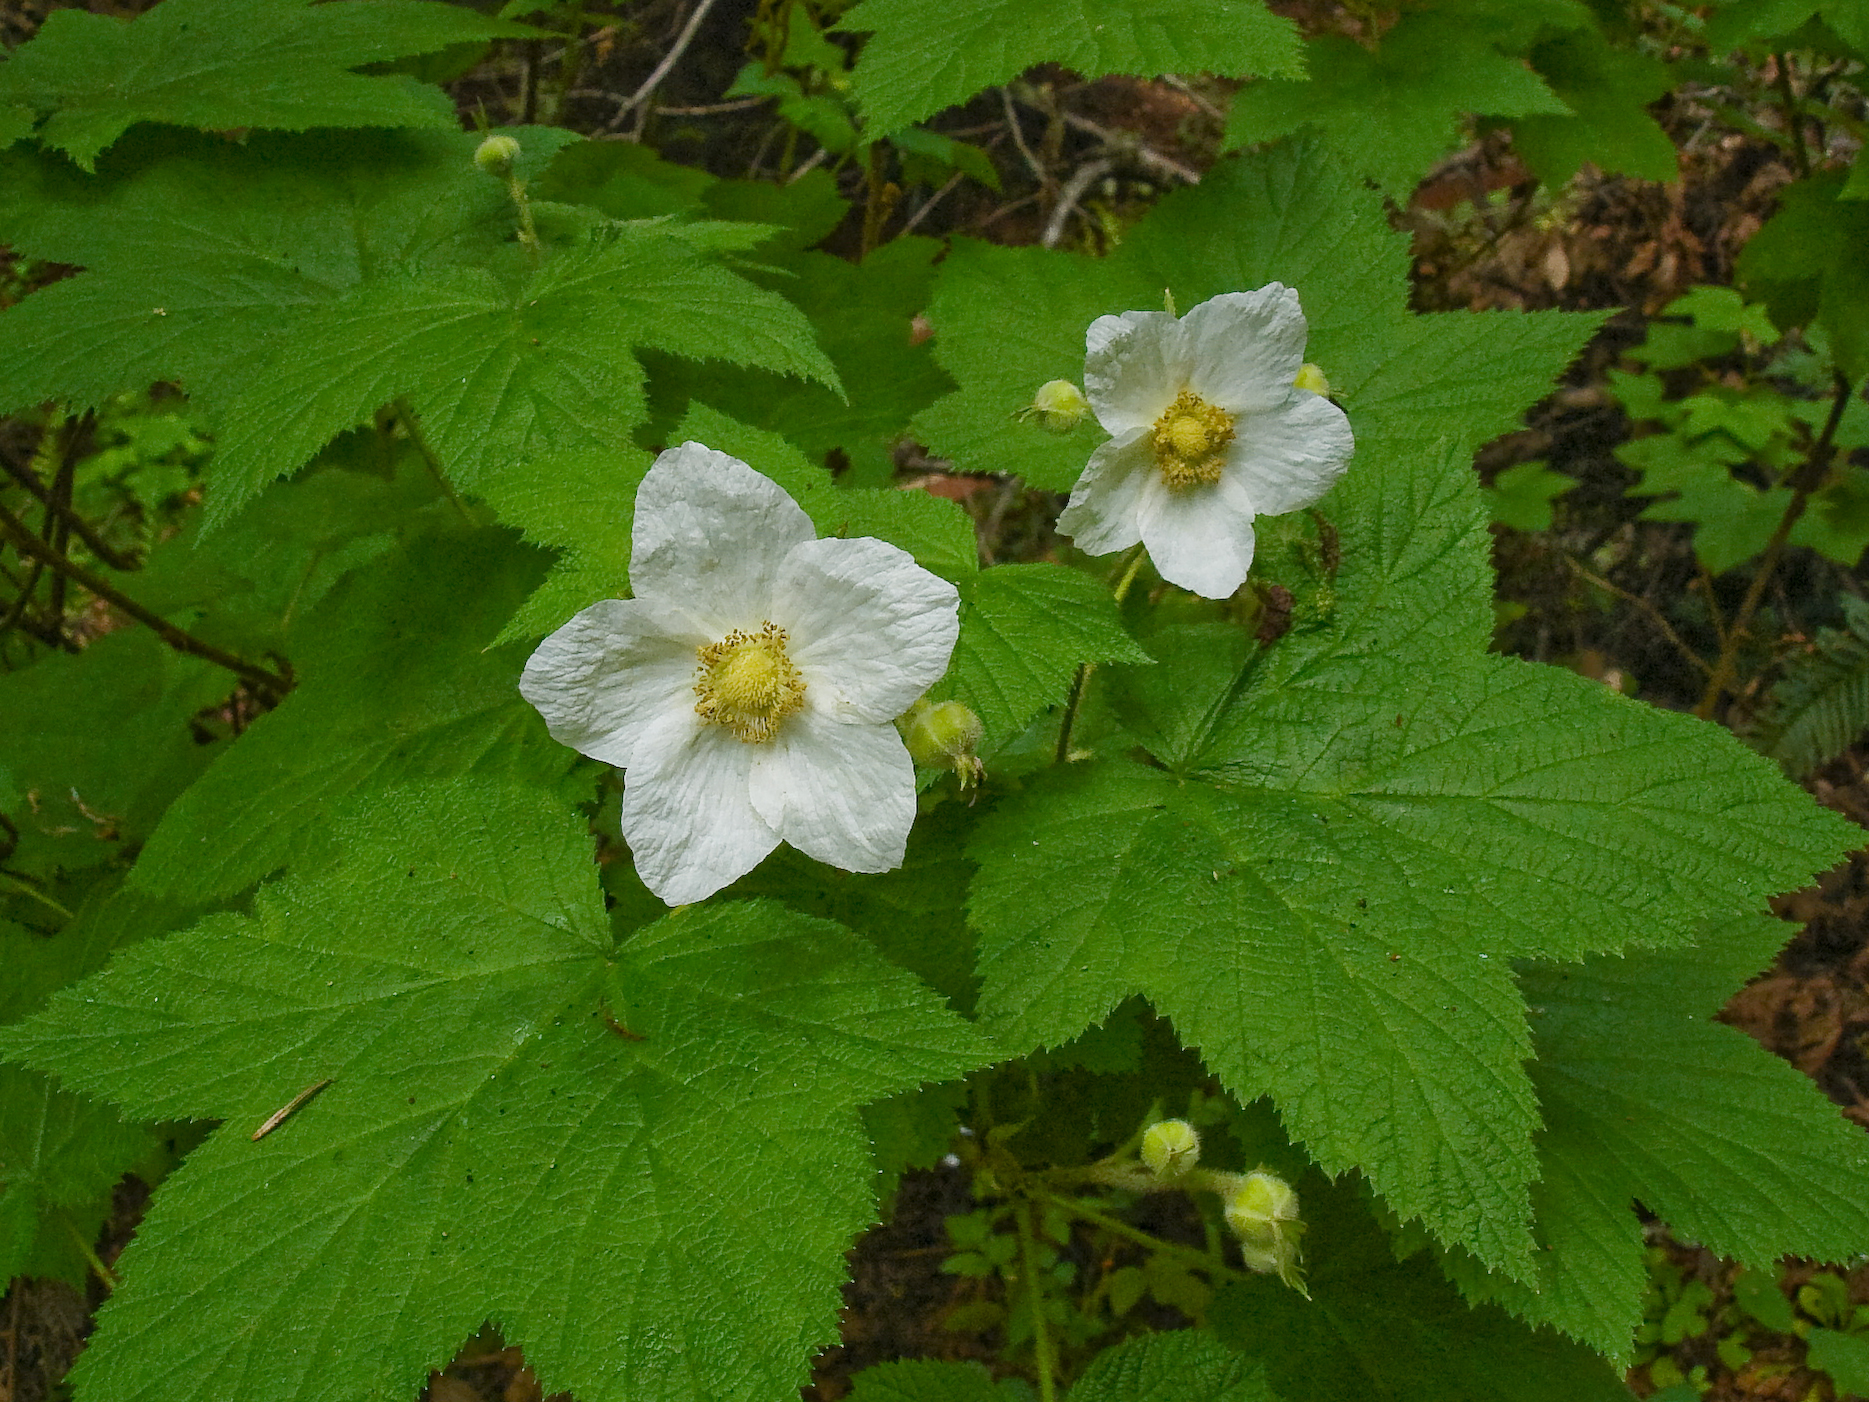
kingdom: Plantae
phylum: Tracheophyta
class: Magnoliopsida
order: Rosales
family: Rosaceae
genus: Rubus
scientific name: Rubus parviflorus
